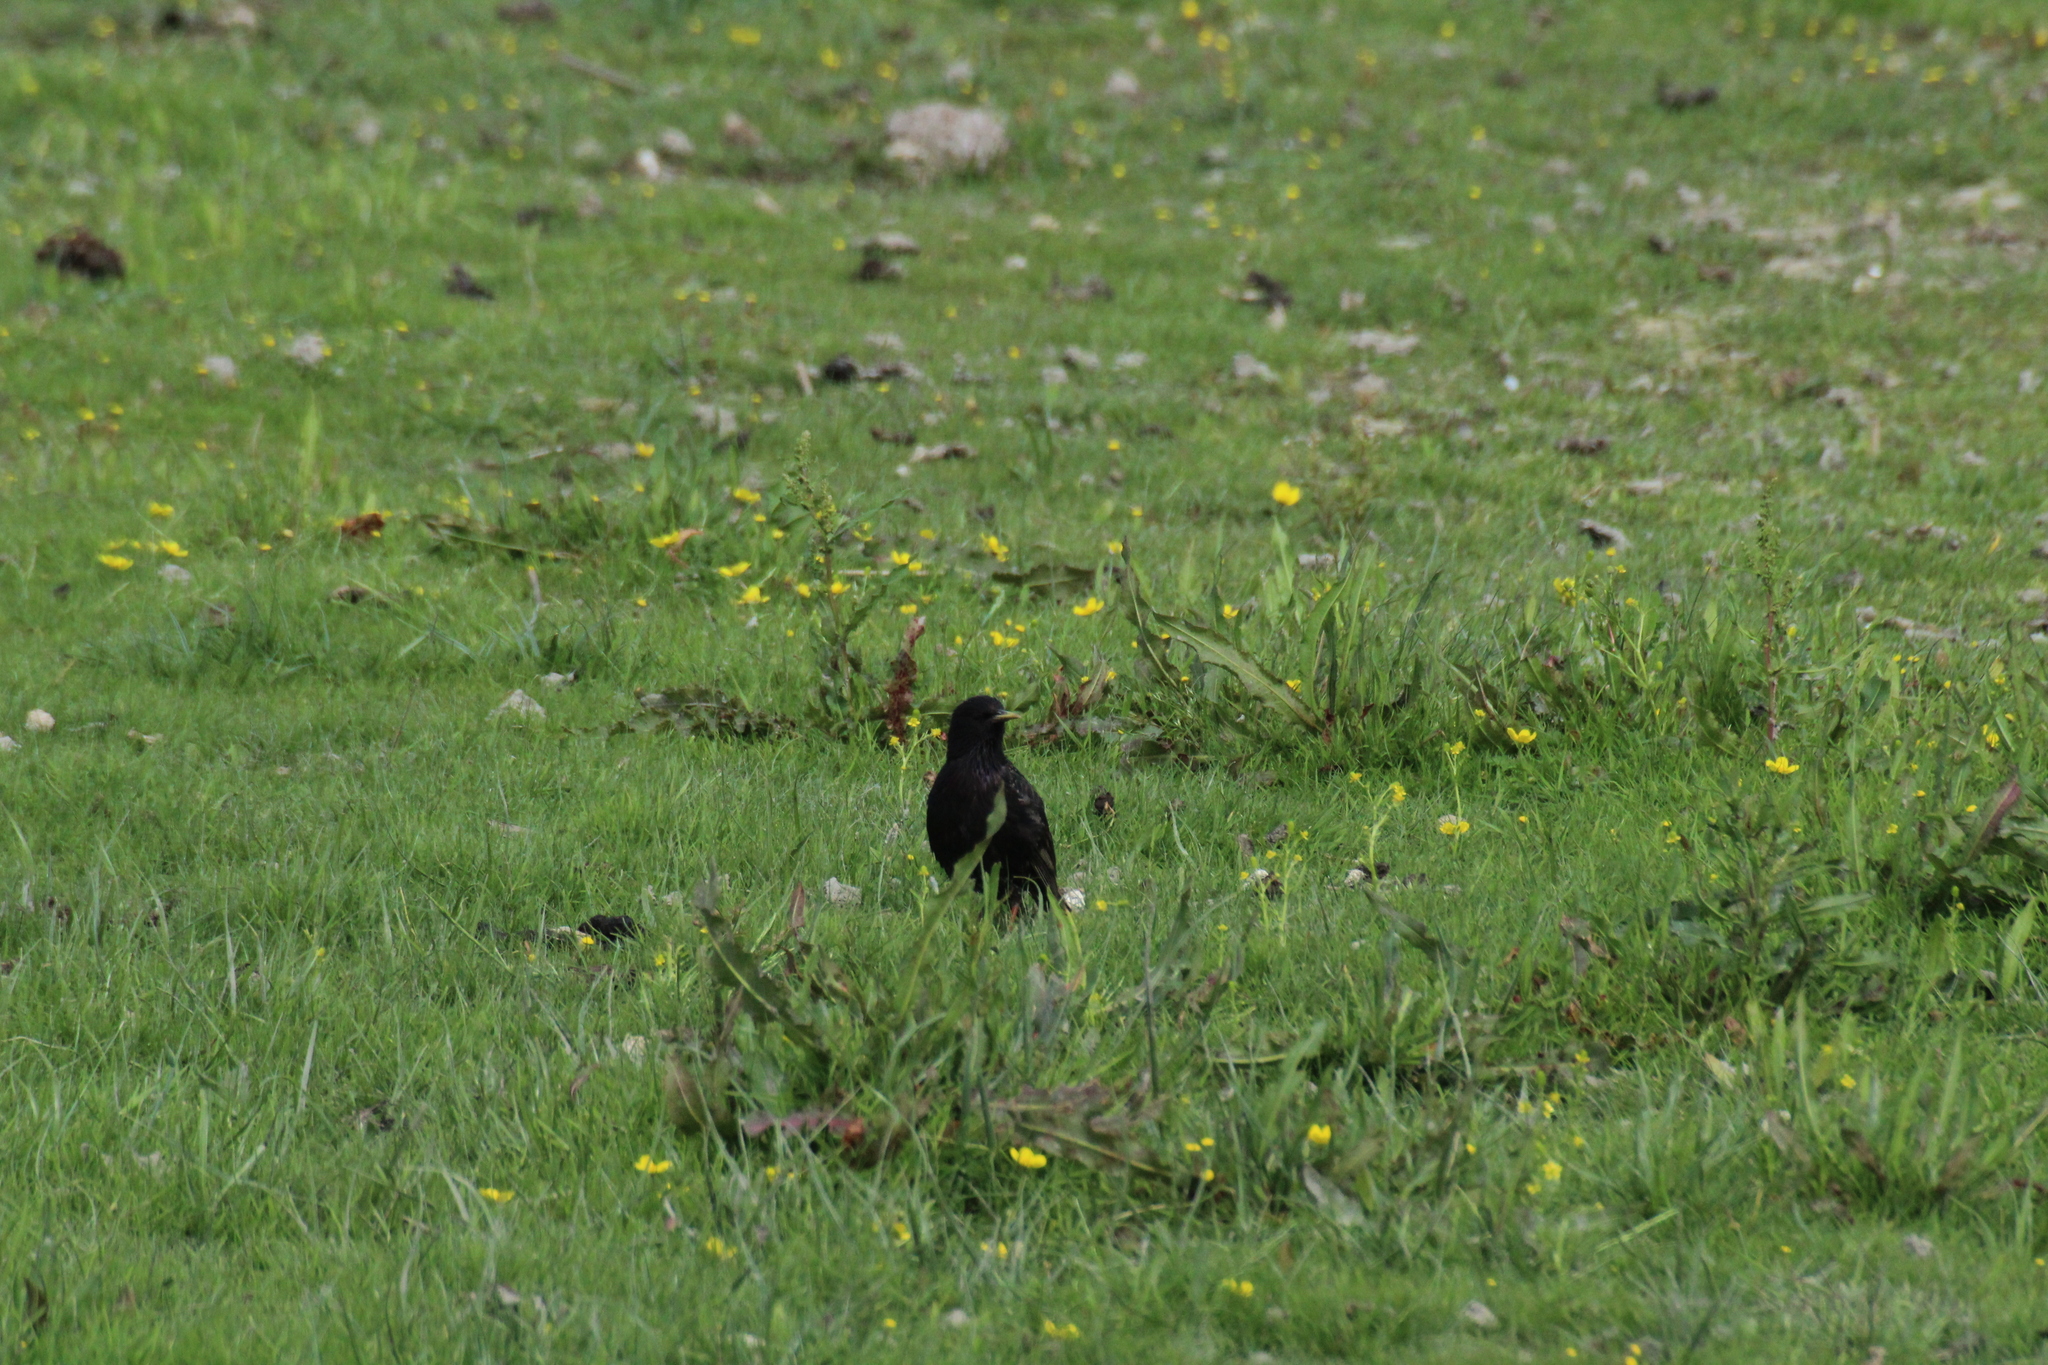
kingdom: Animalia
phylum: Chordata
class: Aves
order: Passeriformes
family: Sturnidae
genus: Sturnus
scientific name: Sturnus vulgaris
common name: Common starling
